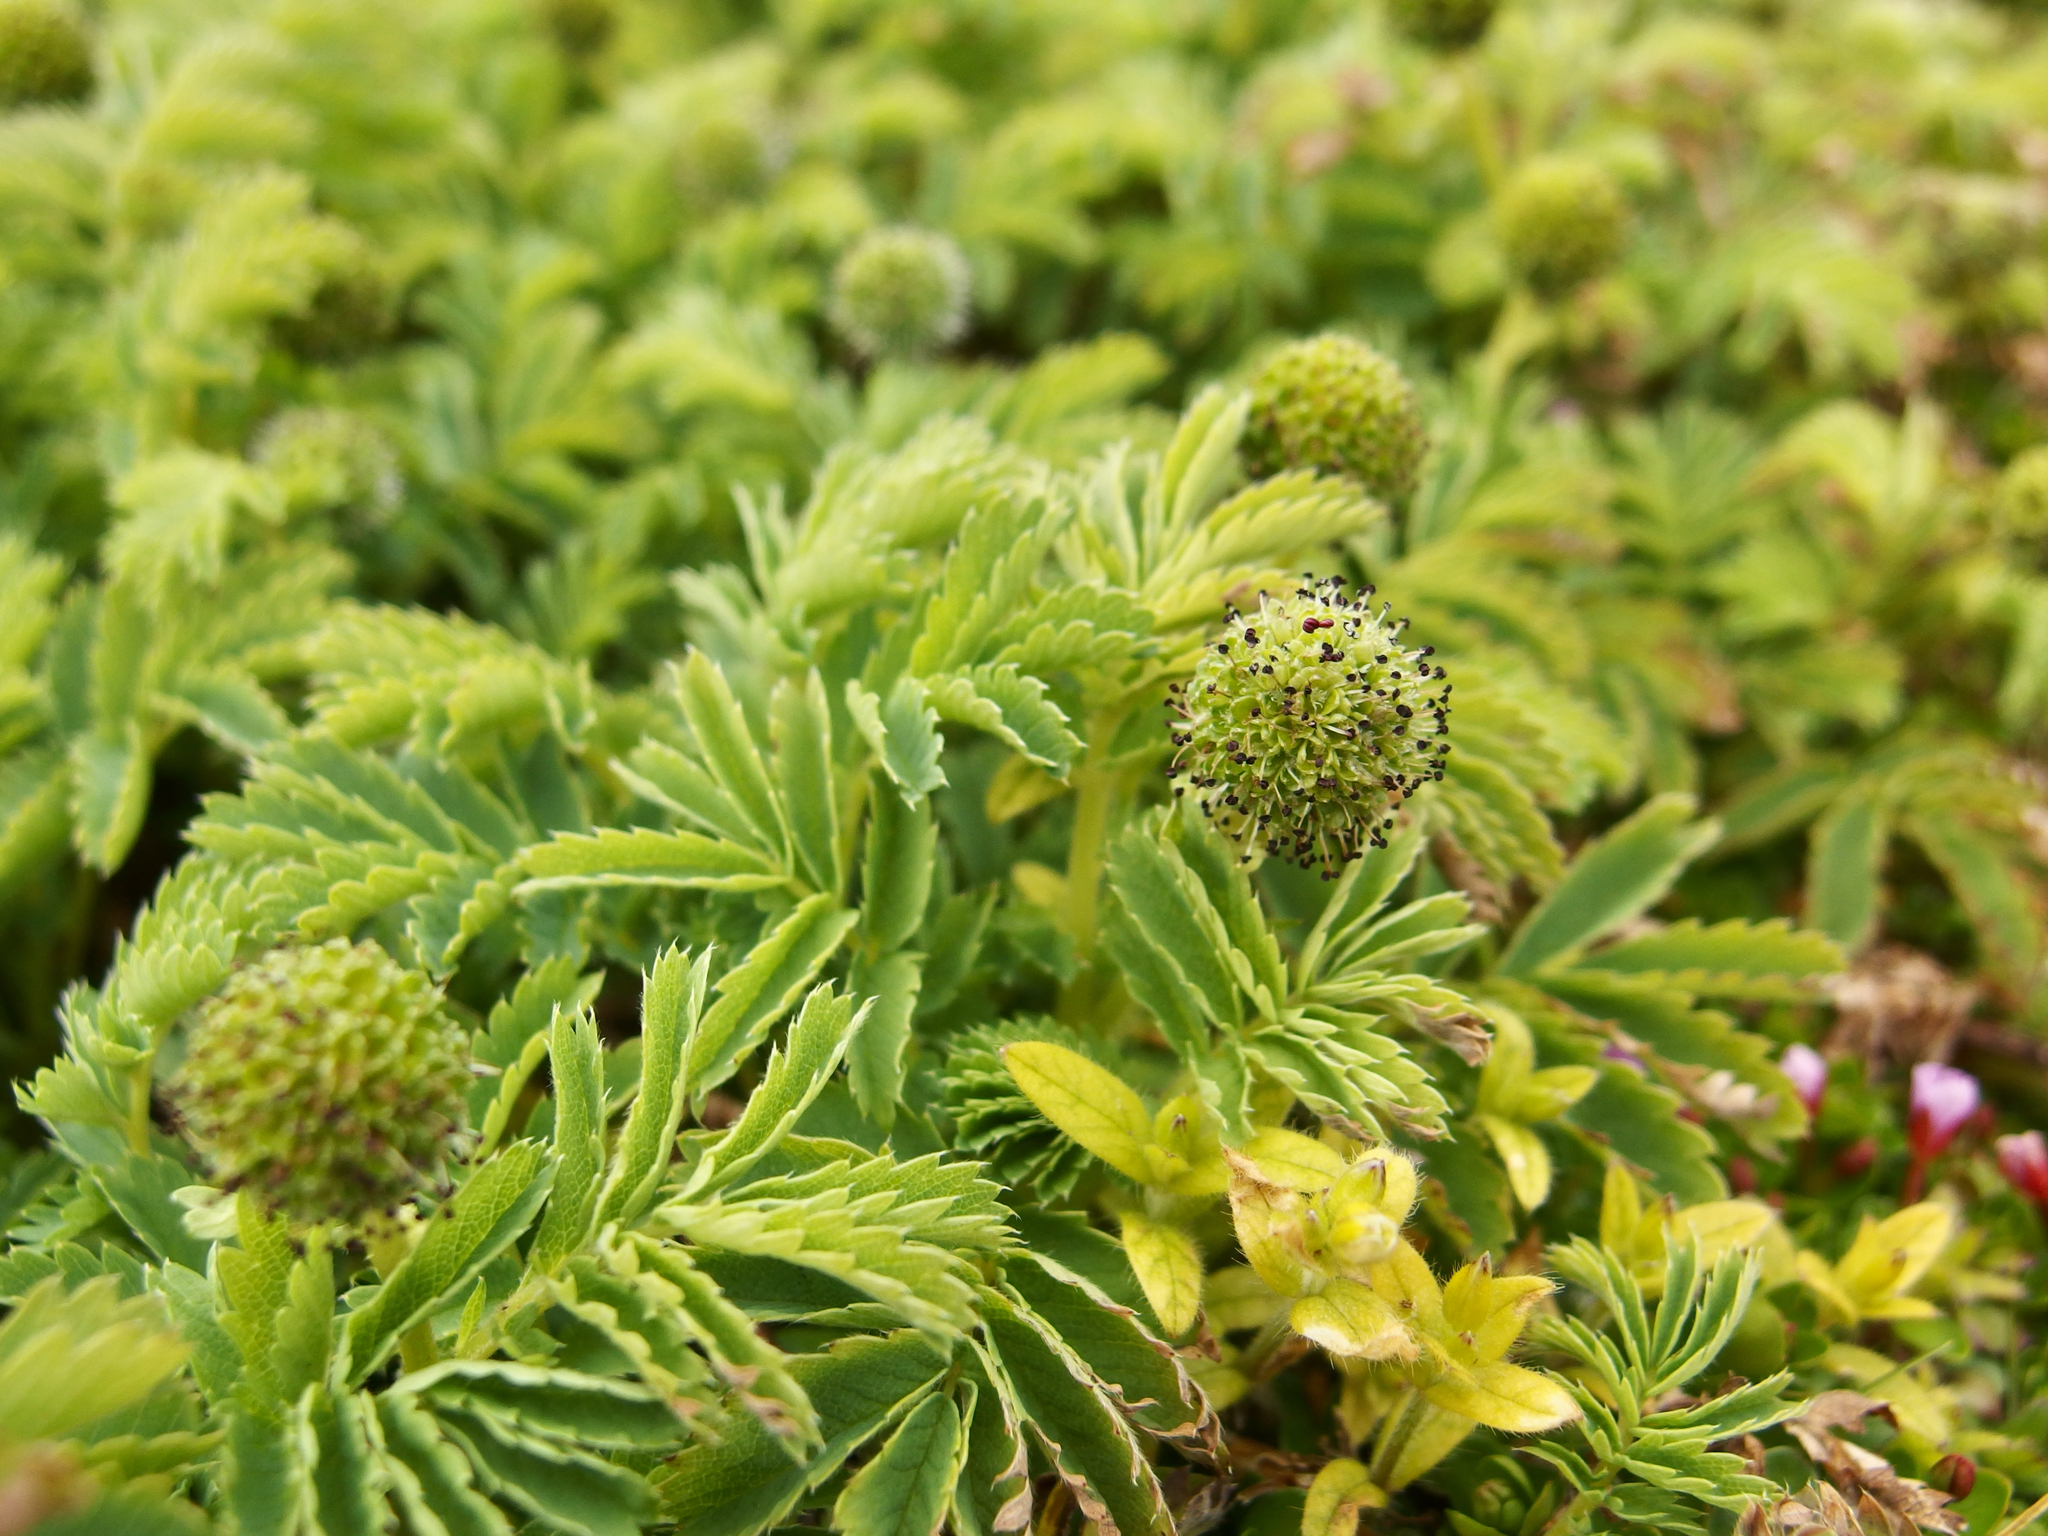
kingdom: Plantae
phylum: Tracheophyta
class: Magnoliopsida
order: Rosales
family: Rosaceae
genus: Acaena
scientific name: Acaena minor
